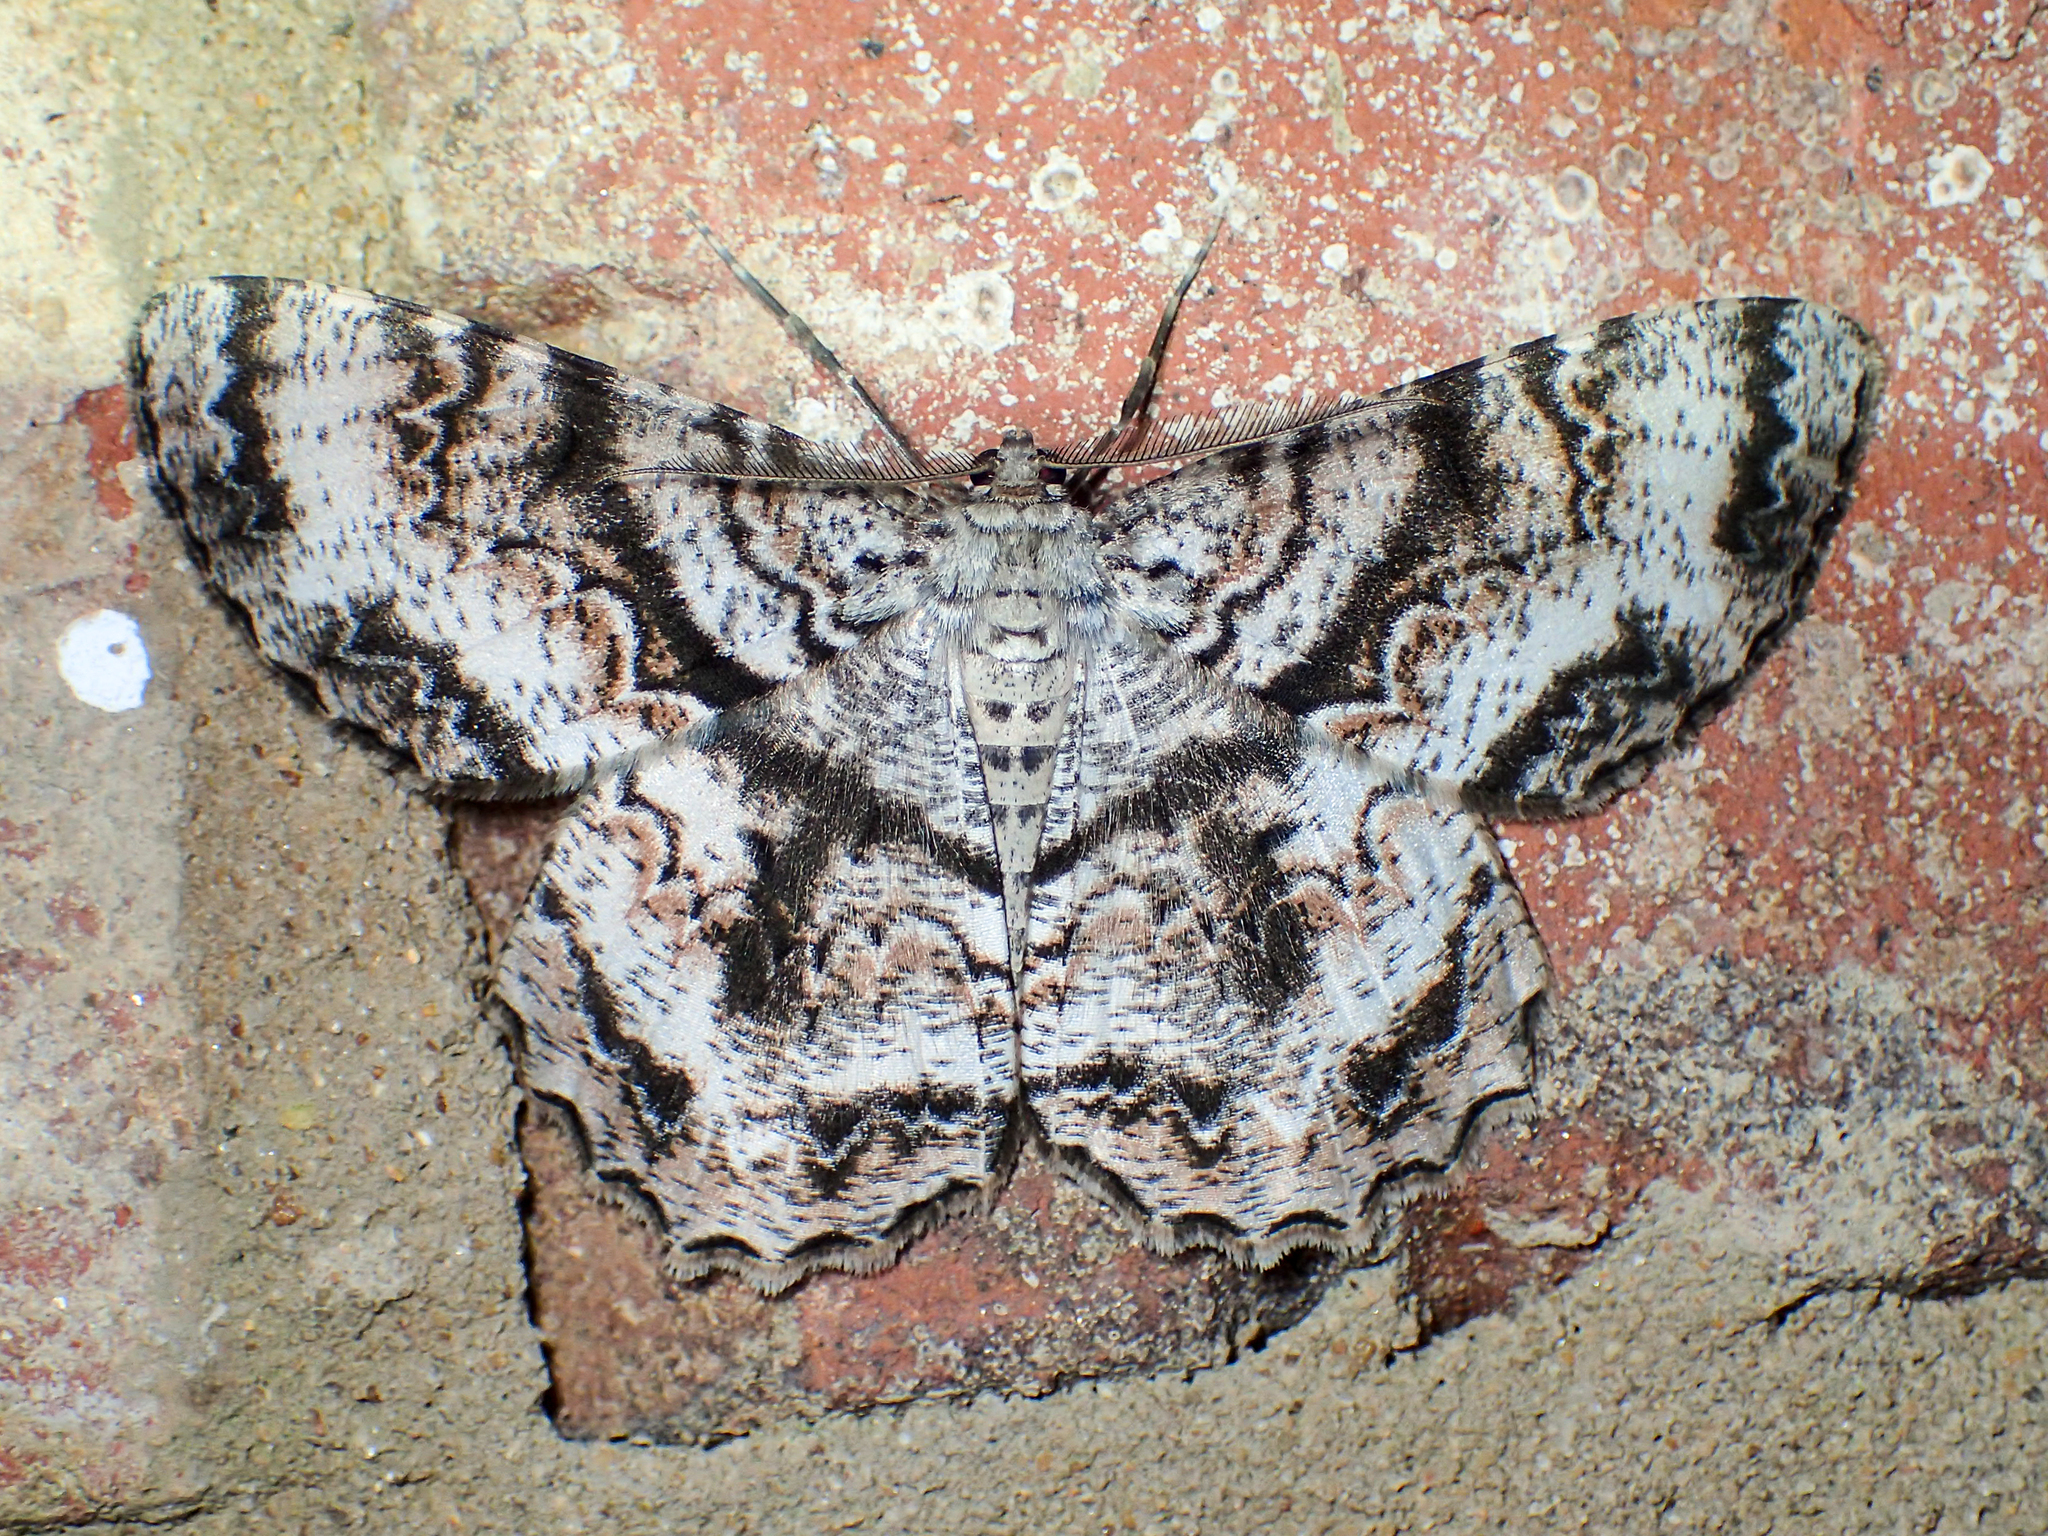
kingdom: Animalia
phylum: Arthropoda
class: Insecta
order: Lepidoptera
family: Geometridae
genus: Epimecis
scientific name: Epimecis hortaria
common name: Tulip-tree beauty
